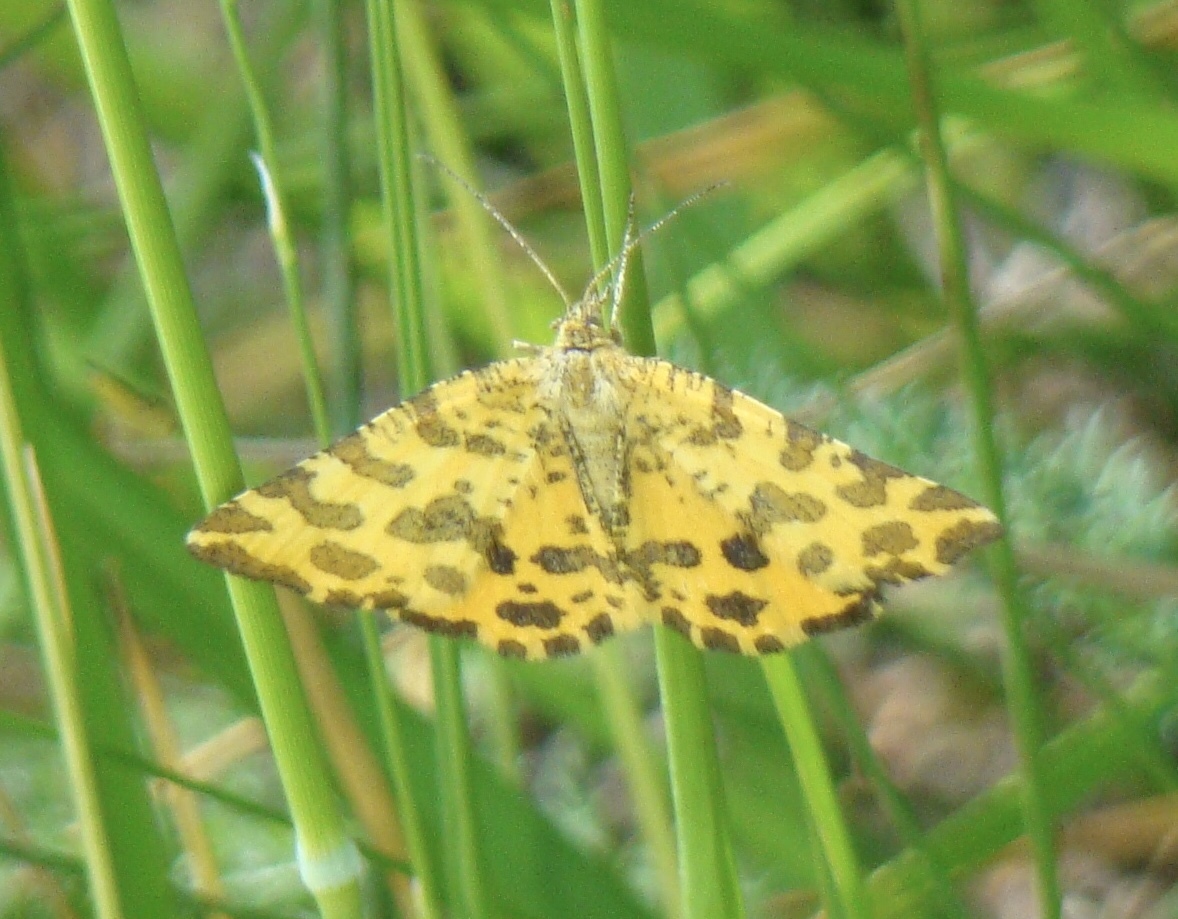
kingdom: Animalia
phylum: Arthropoda
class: Insecta
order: Lepidoptera
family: Geometridae
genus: Pseudopanthera
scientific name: Pseudopanthera macularia
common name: Speckled yellow
